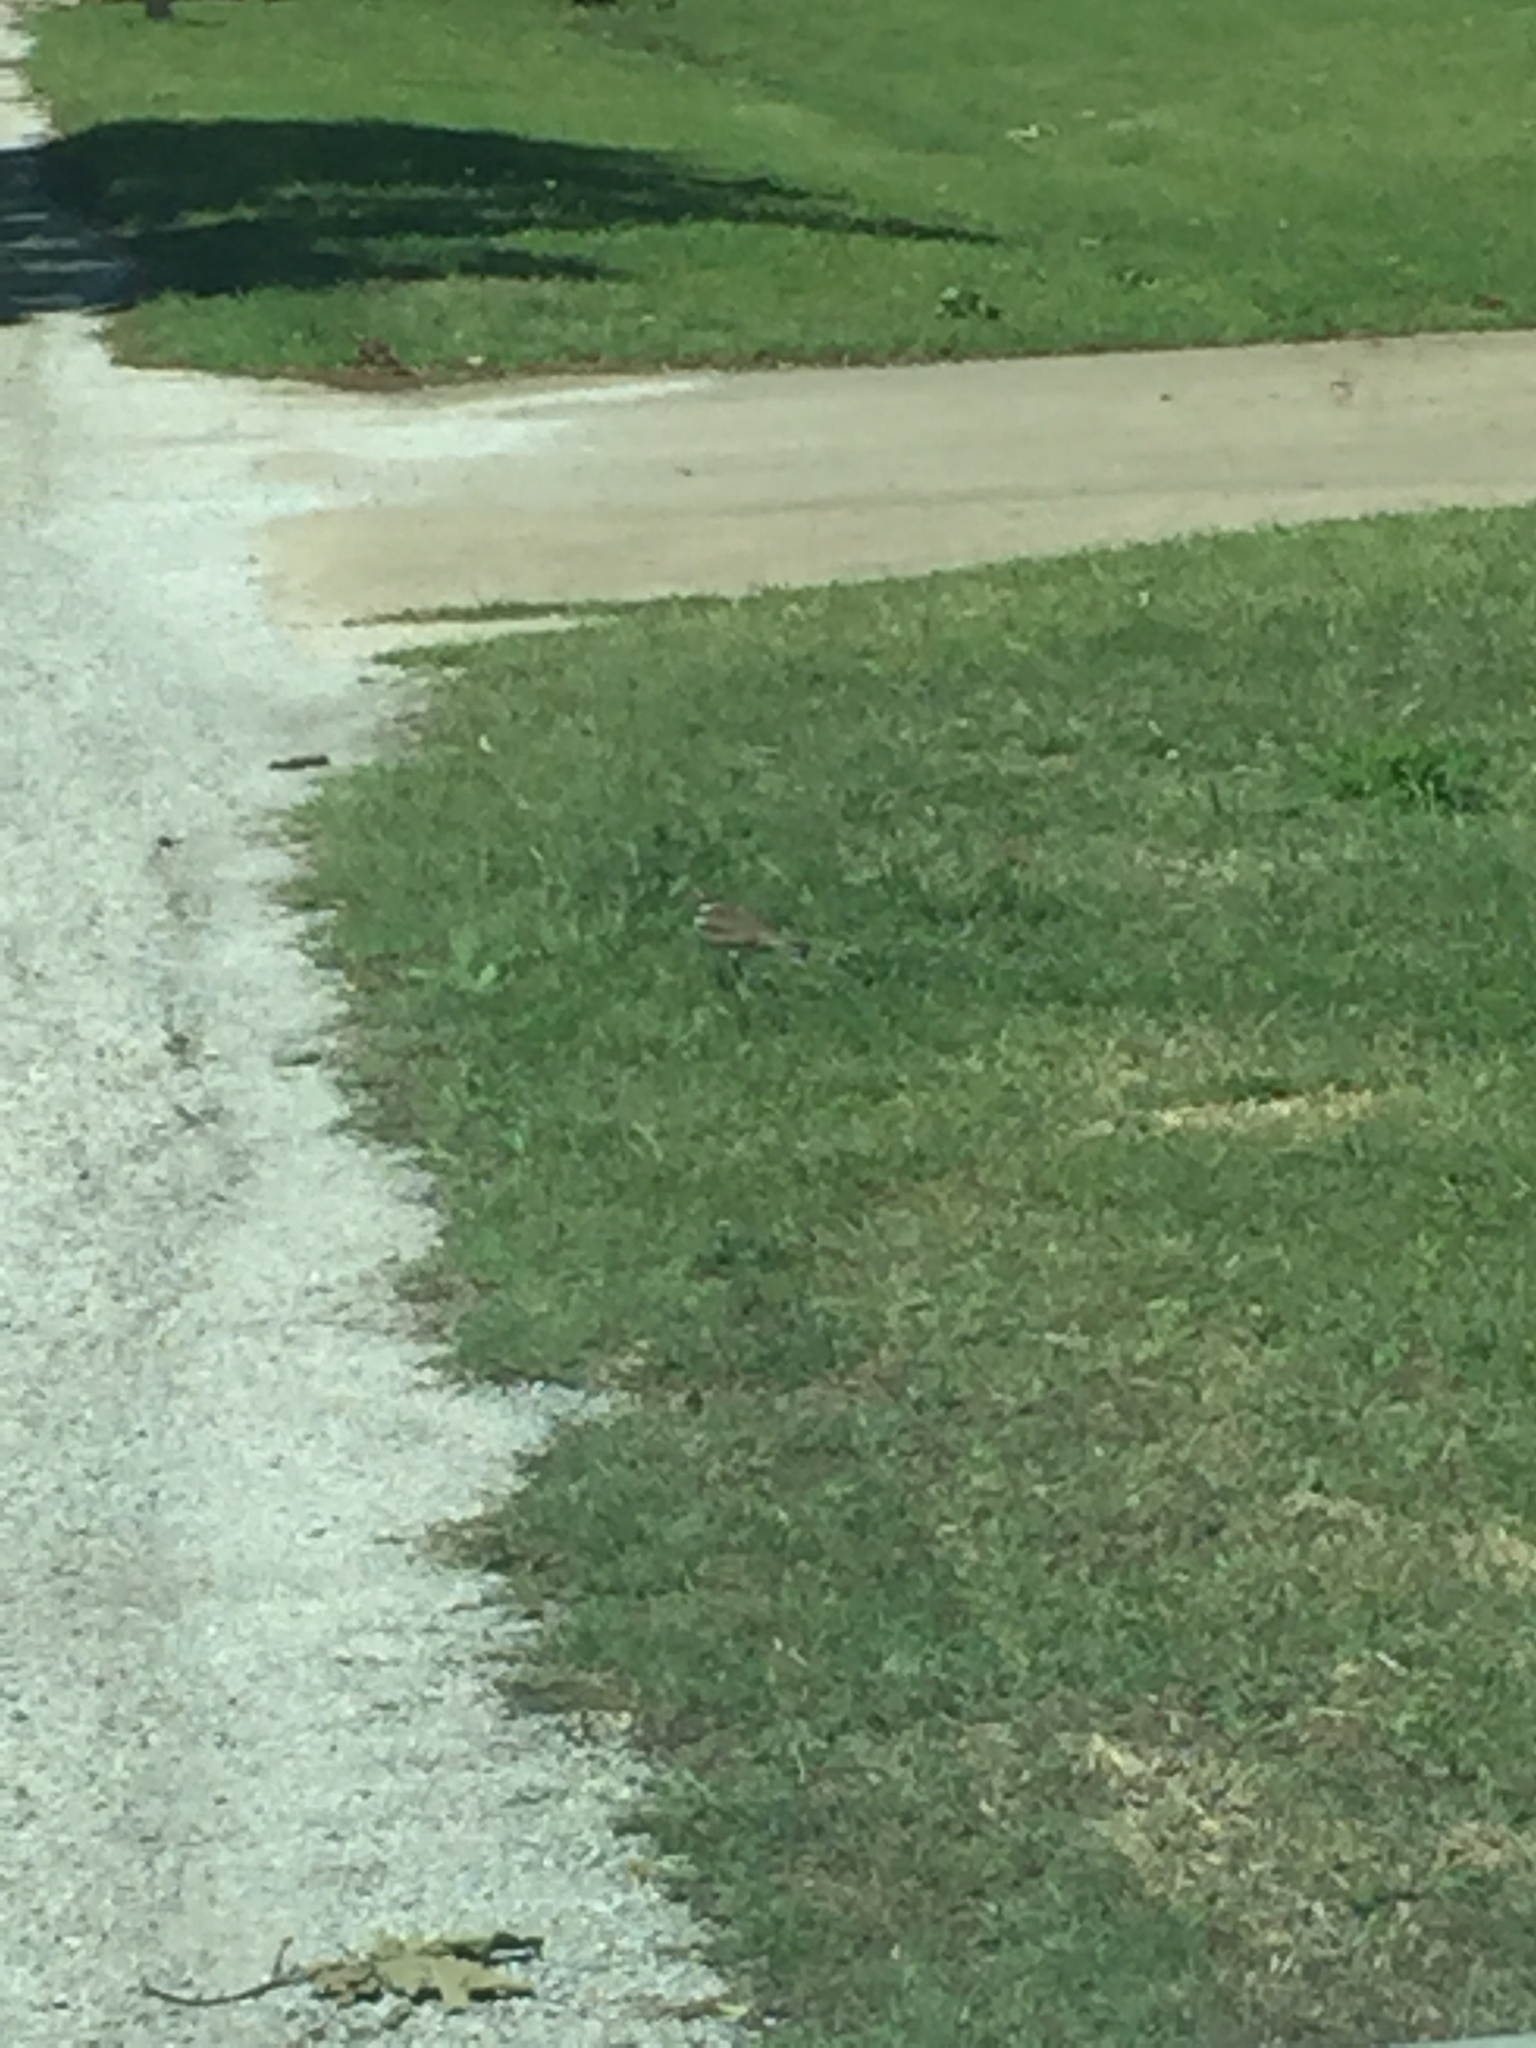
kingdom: Animalia
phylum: Chordata
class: Aves
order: Charadriiformes
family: Charadriidae
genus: Charadrius
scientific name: Charadrius vociferus
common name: Killdeer
